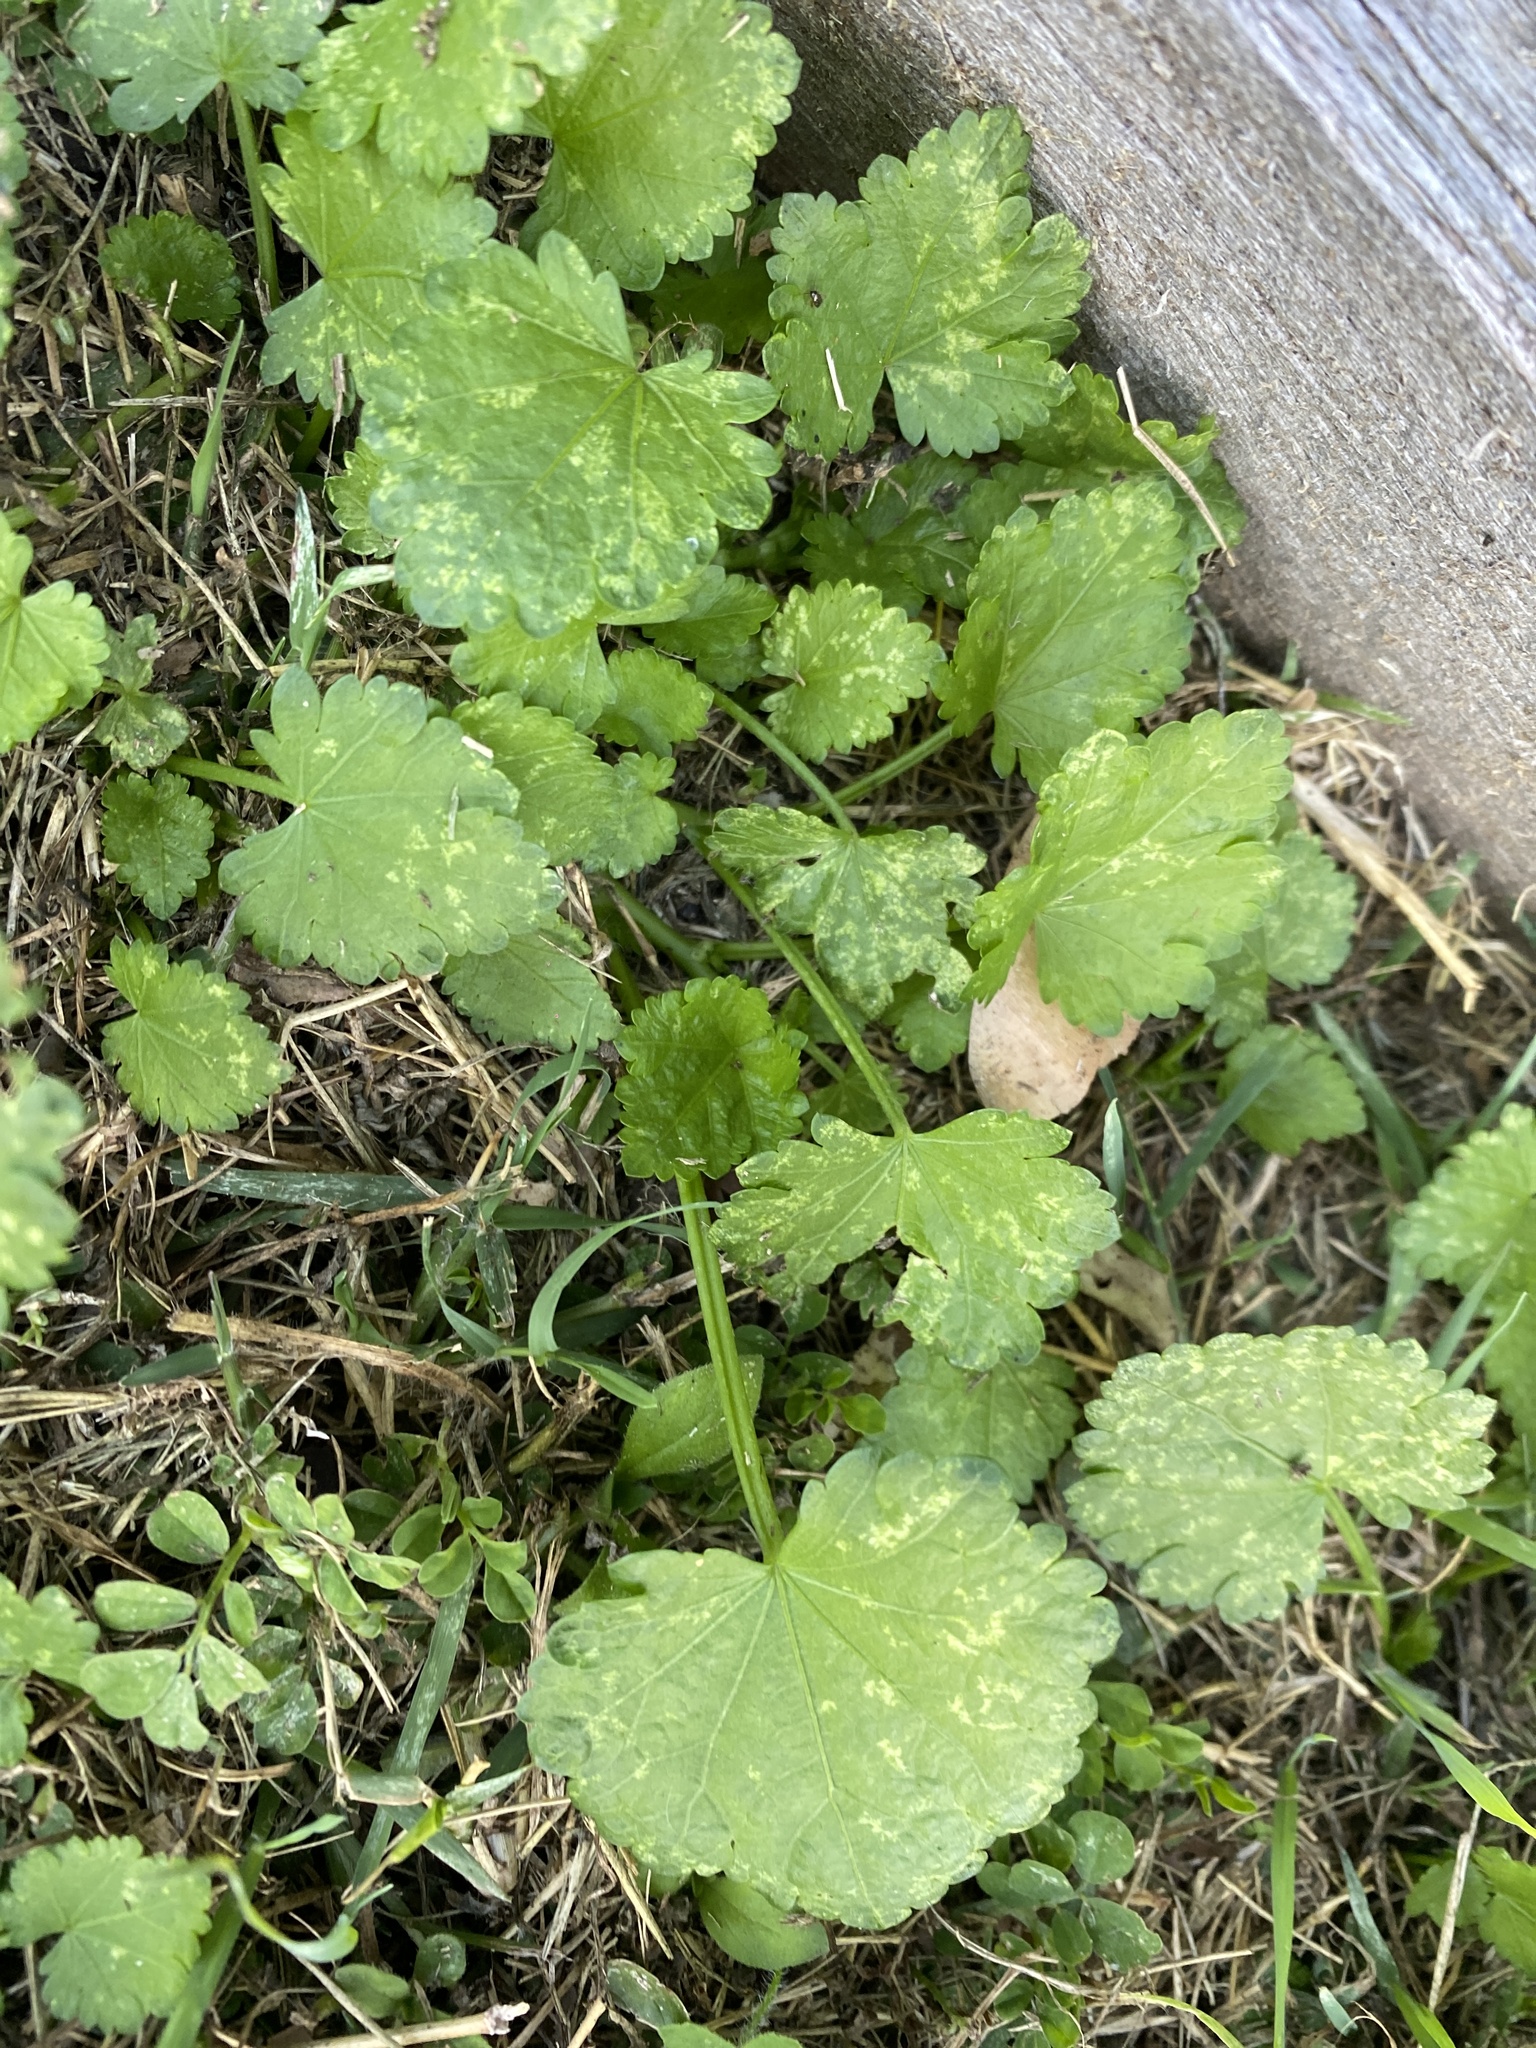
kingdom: Plantae
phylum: Tracheophyta
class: Magnoliopsida
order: Malvales
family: Malvaceae
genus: Modiola
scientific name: Modiola caroliniana
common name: Carolina bristlemallow
